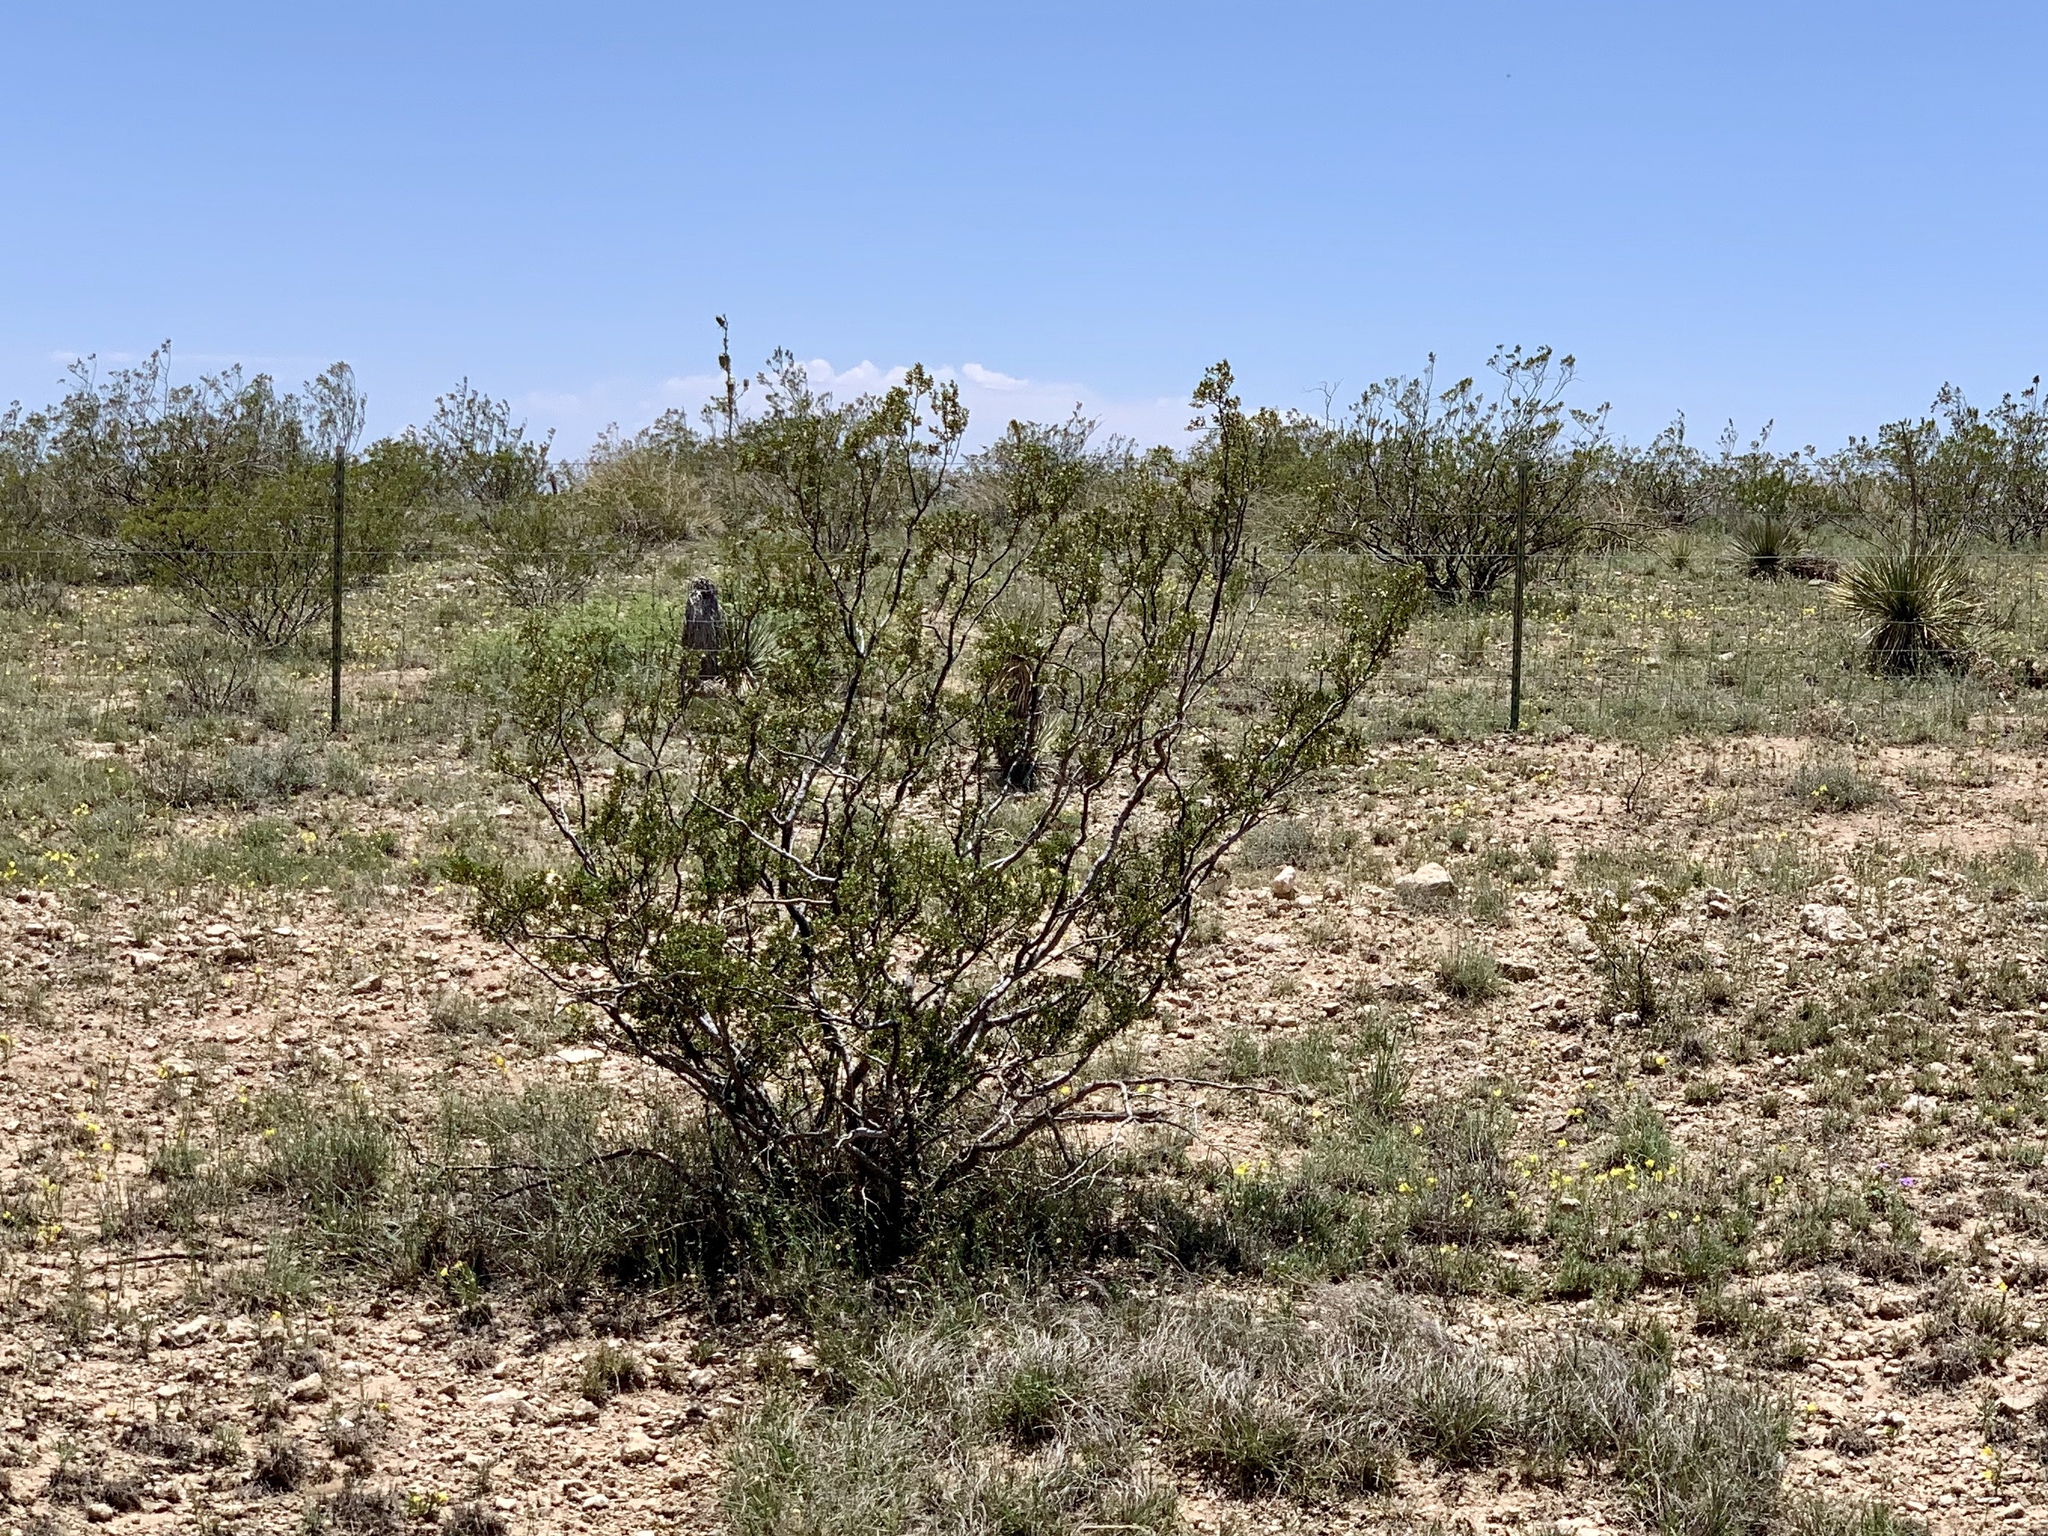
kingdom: Plantae
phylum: Tracheophyta
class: Magnoliopsida
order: Zygophyllales
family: Zygophyllaceae
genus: Larrea
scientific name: Larrea tridentata
